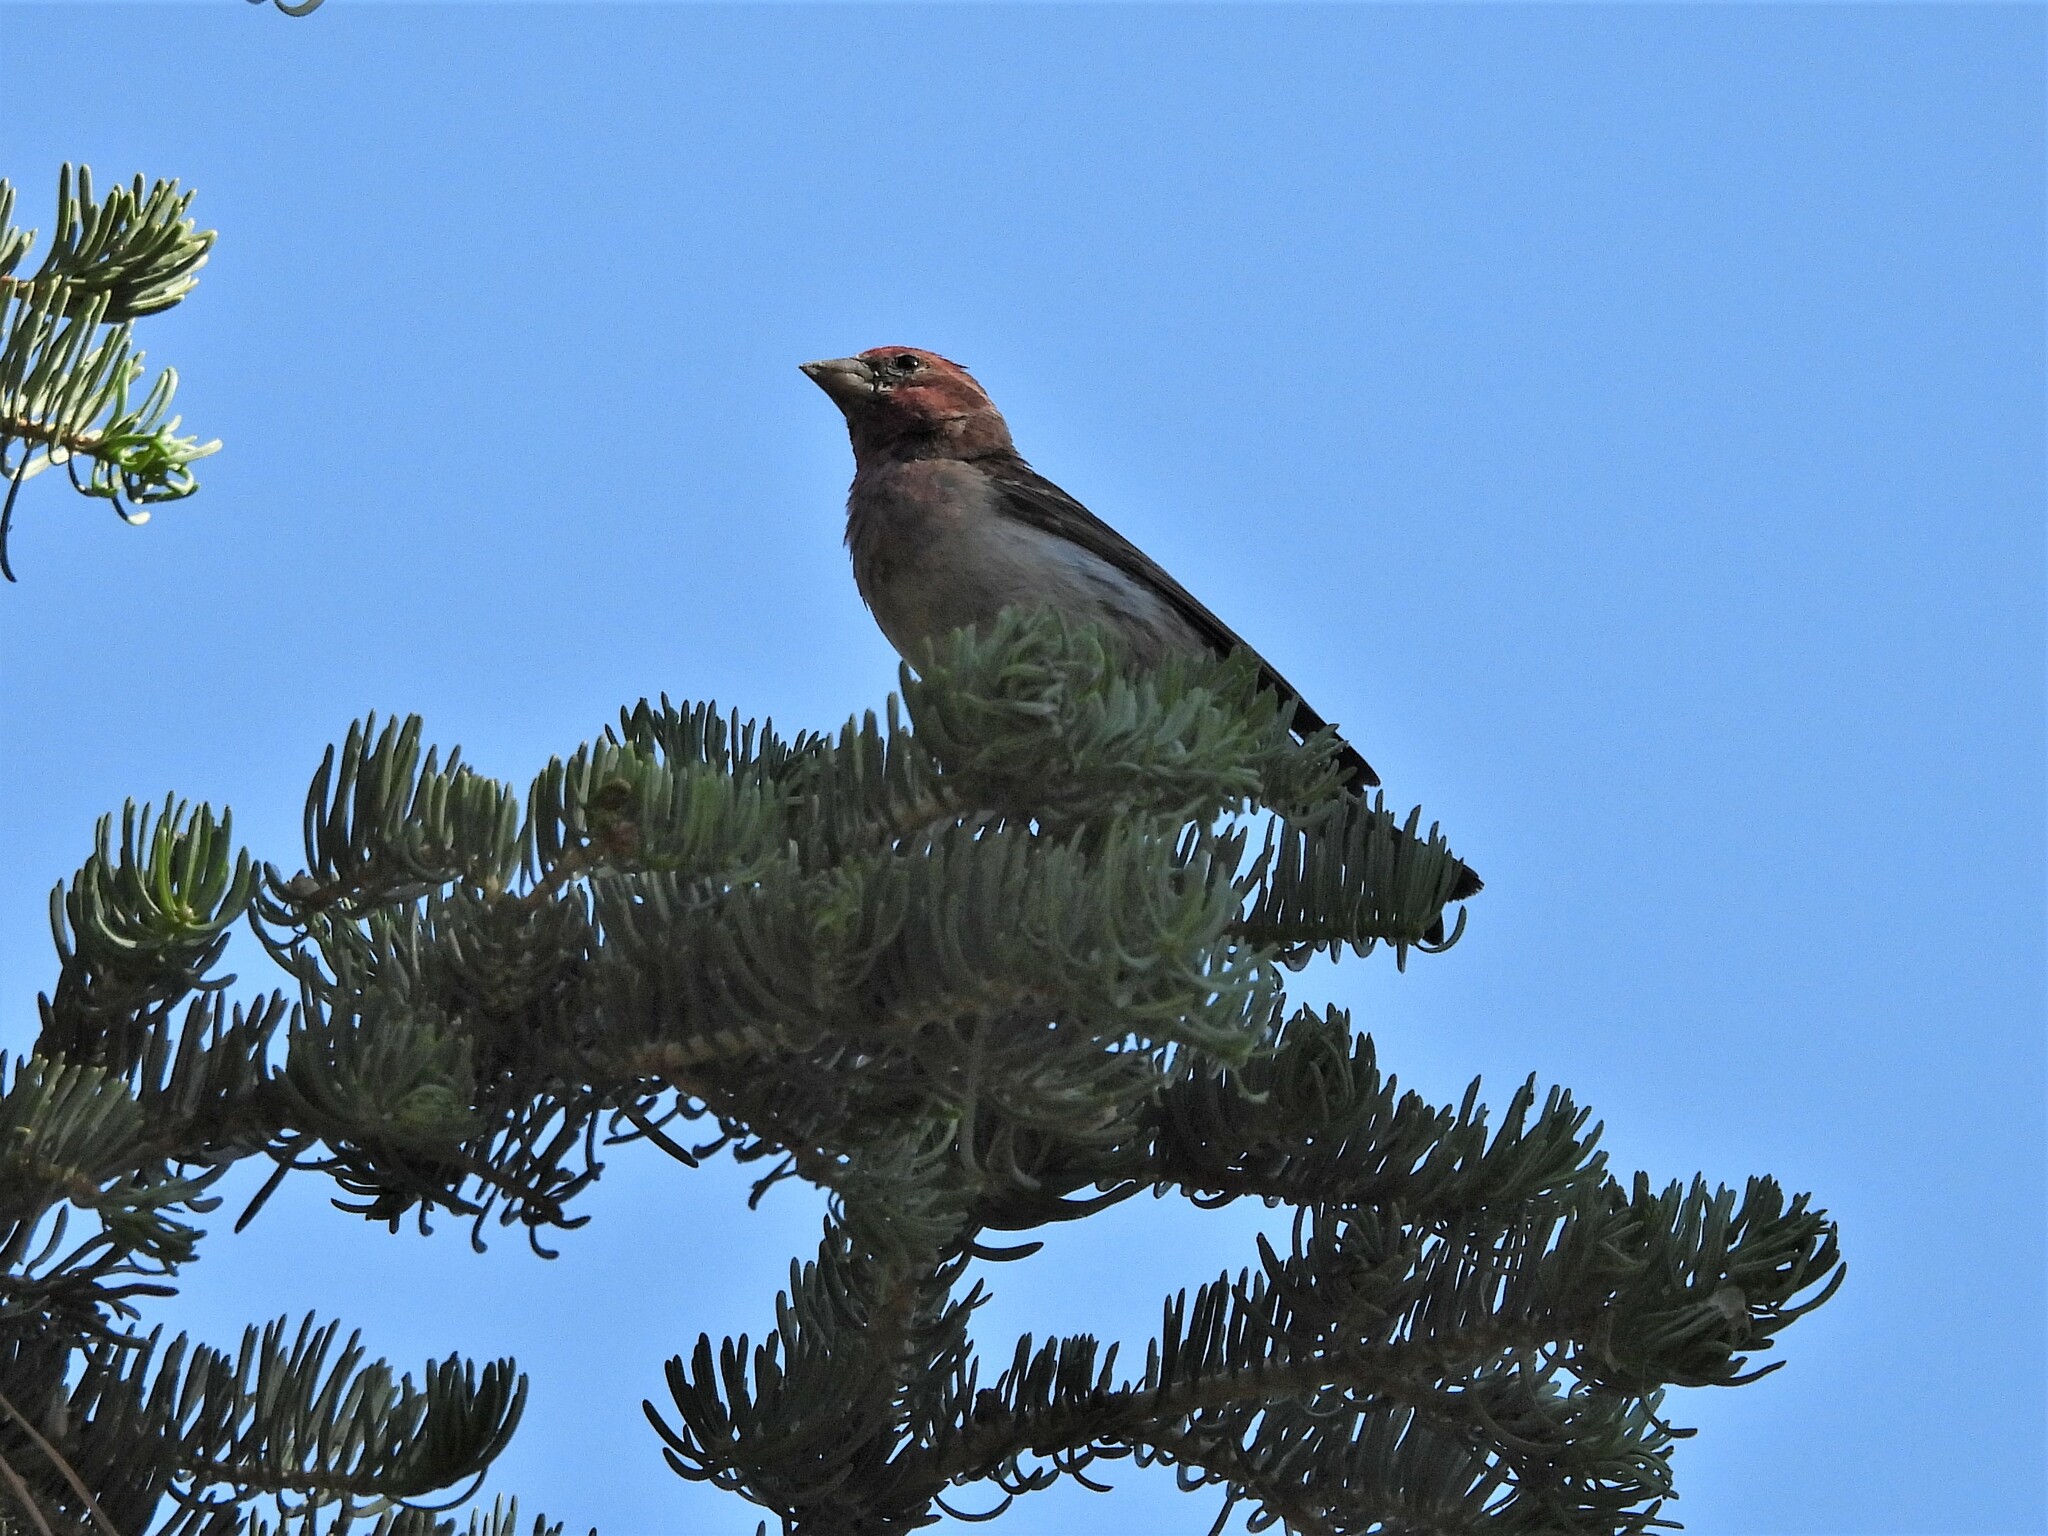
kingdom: Animalia
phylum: Chordata
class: Aves
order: Passeriformes
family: Fringillidae
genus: Haemorhous
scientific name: Haemorhous cassinii
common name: Cassin's finch
